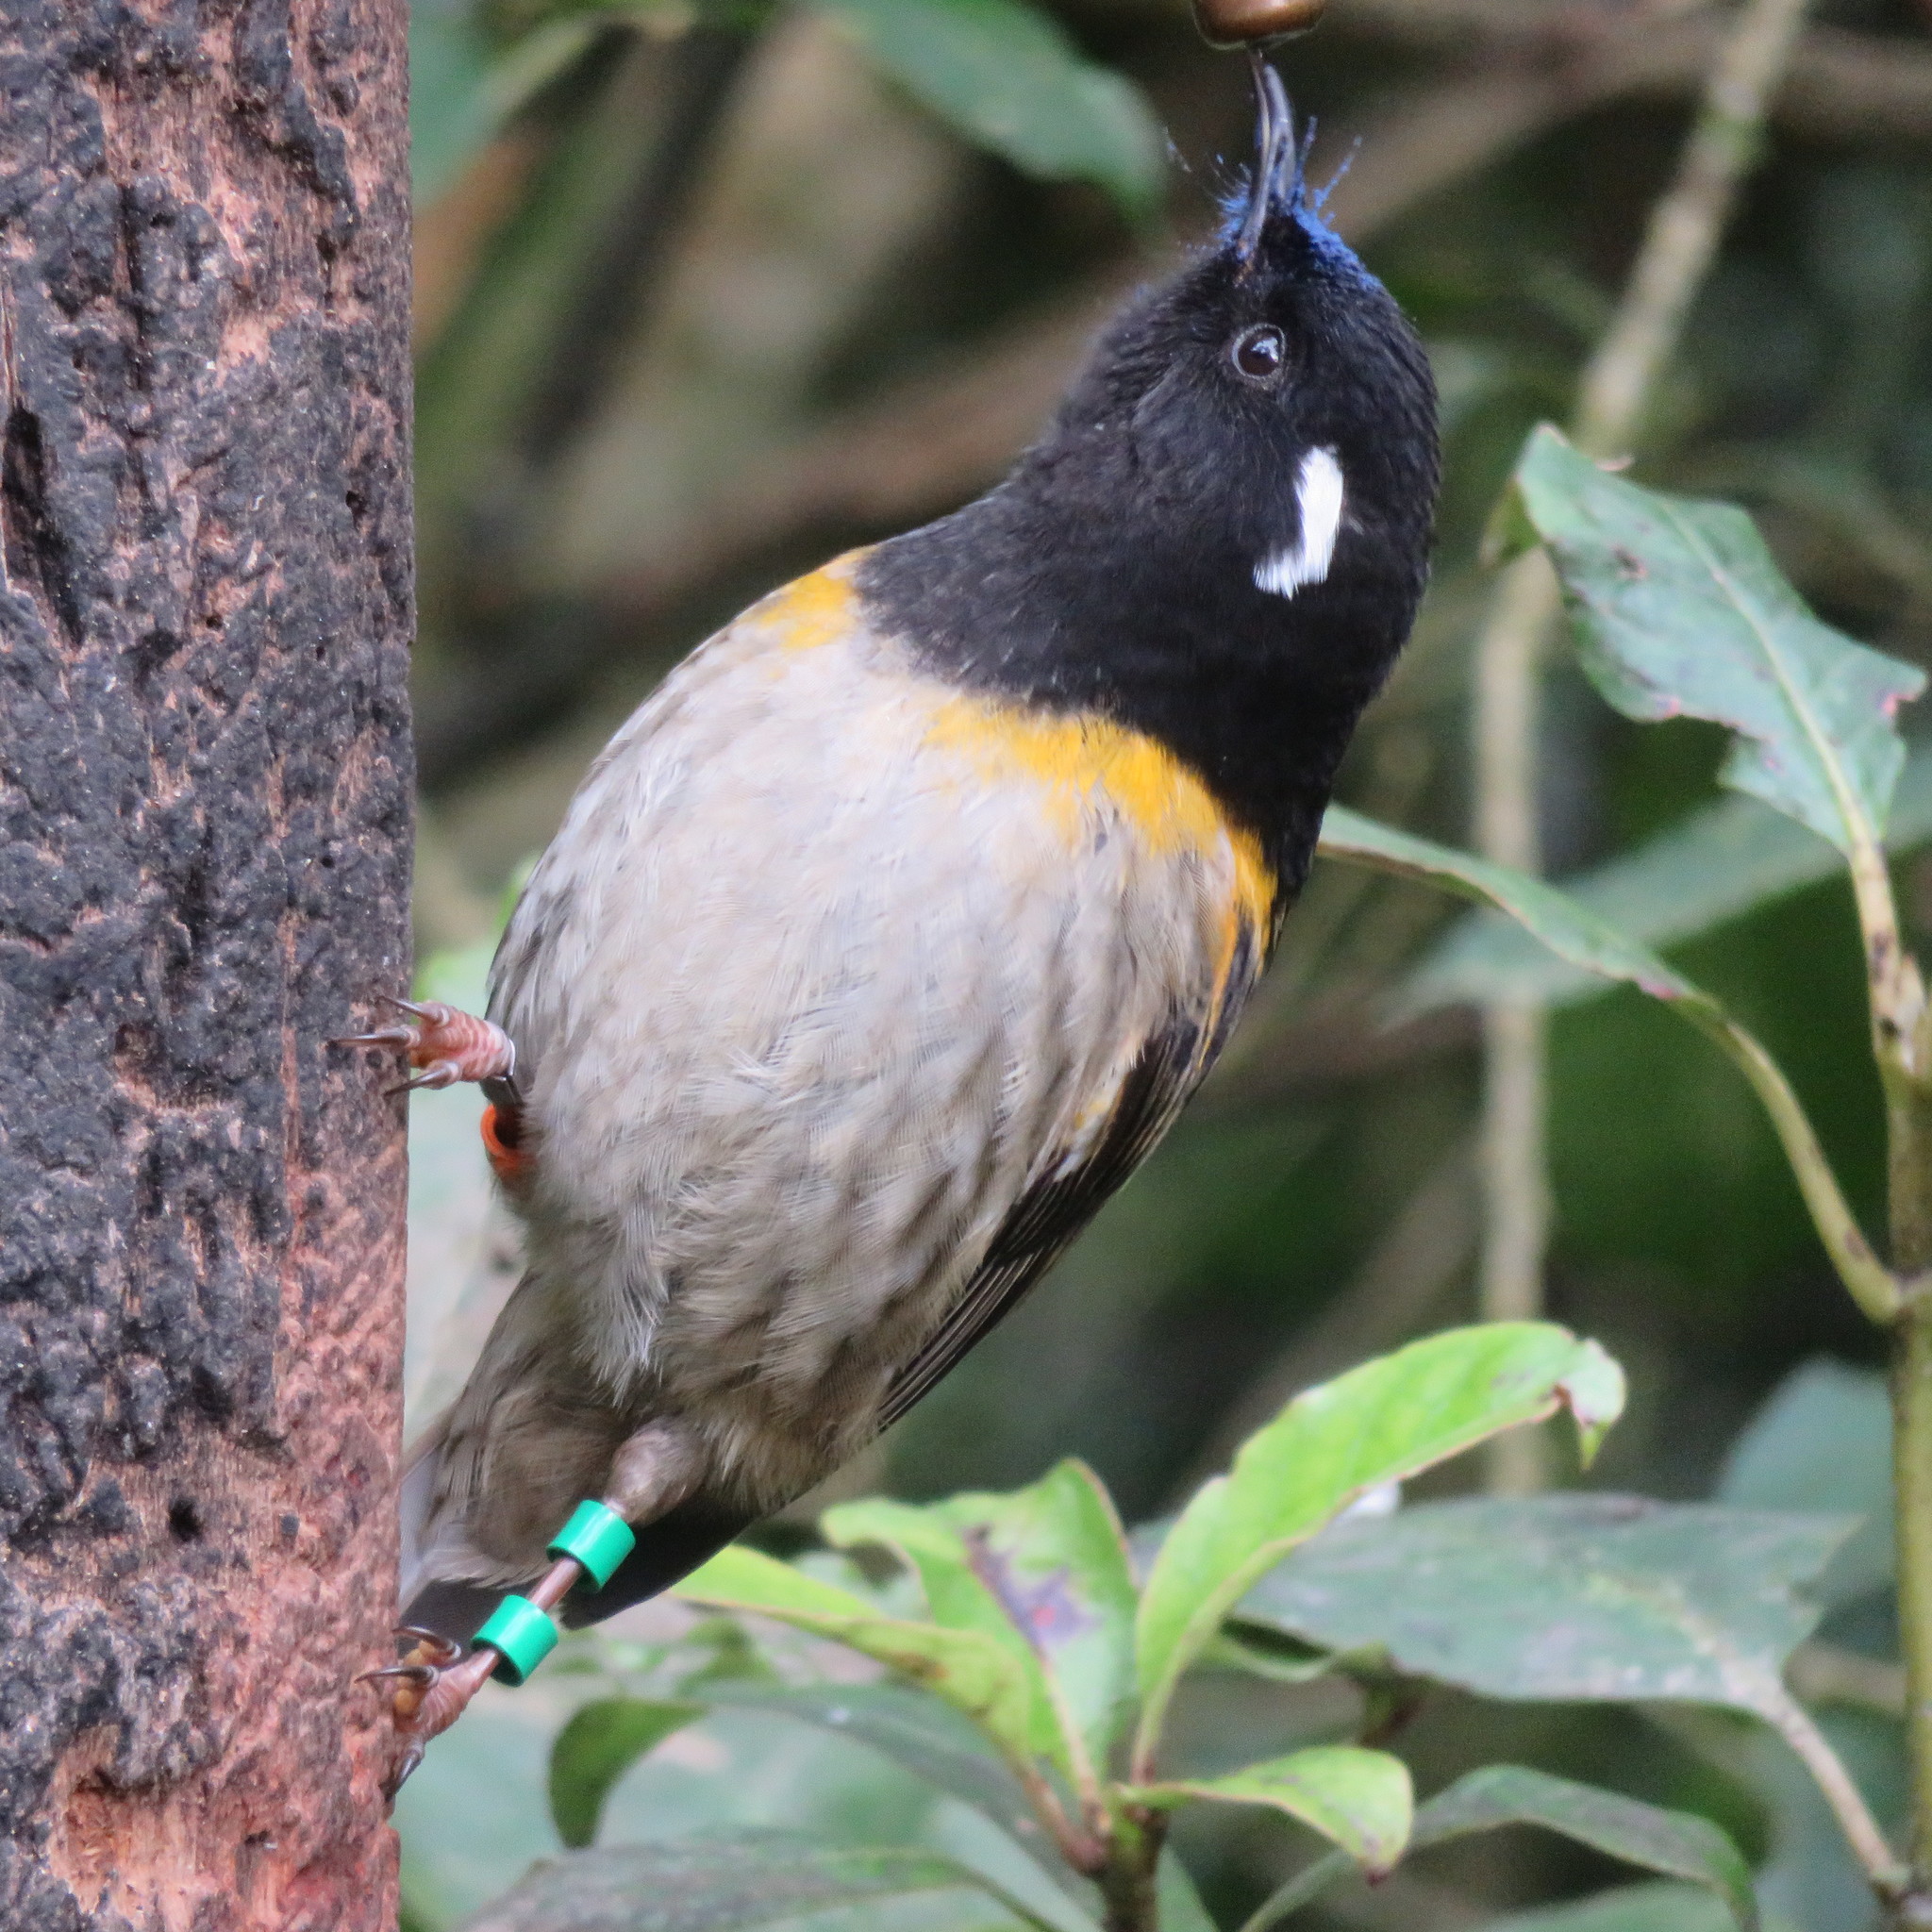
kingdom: Animalia
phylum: Chordata
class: Aves
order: Passeriformes
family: Notiomystidae
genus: Notiomystis
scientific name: Notiomystis cincta
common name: Stitchbird
